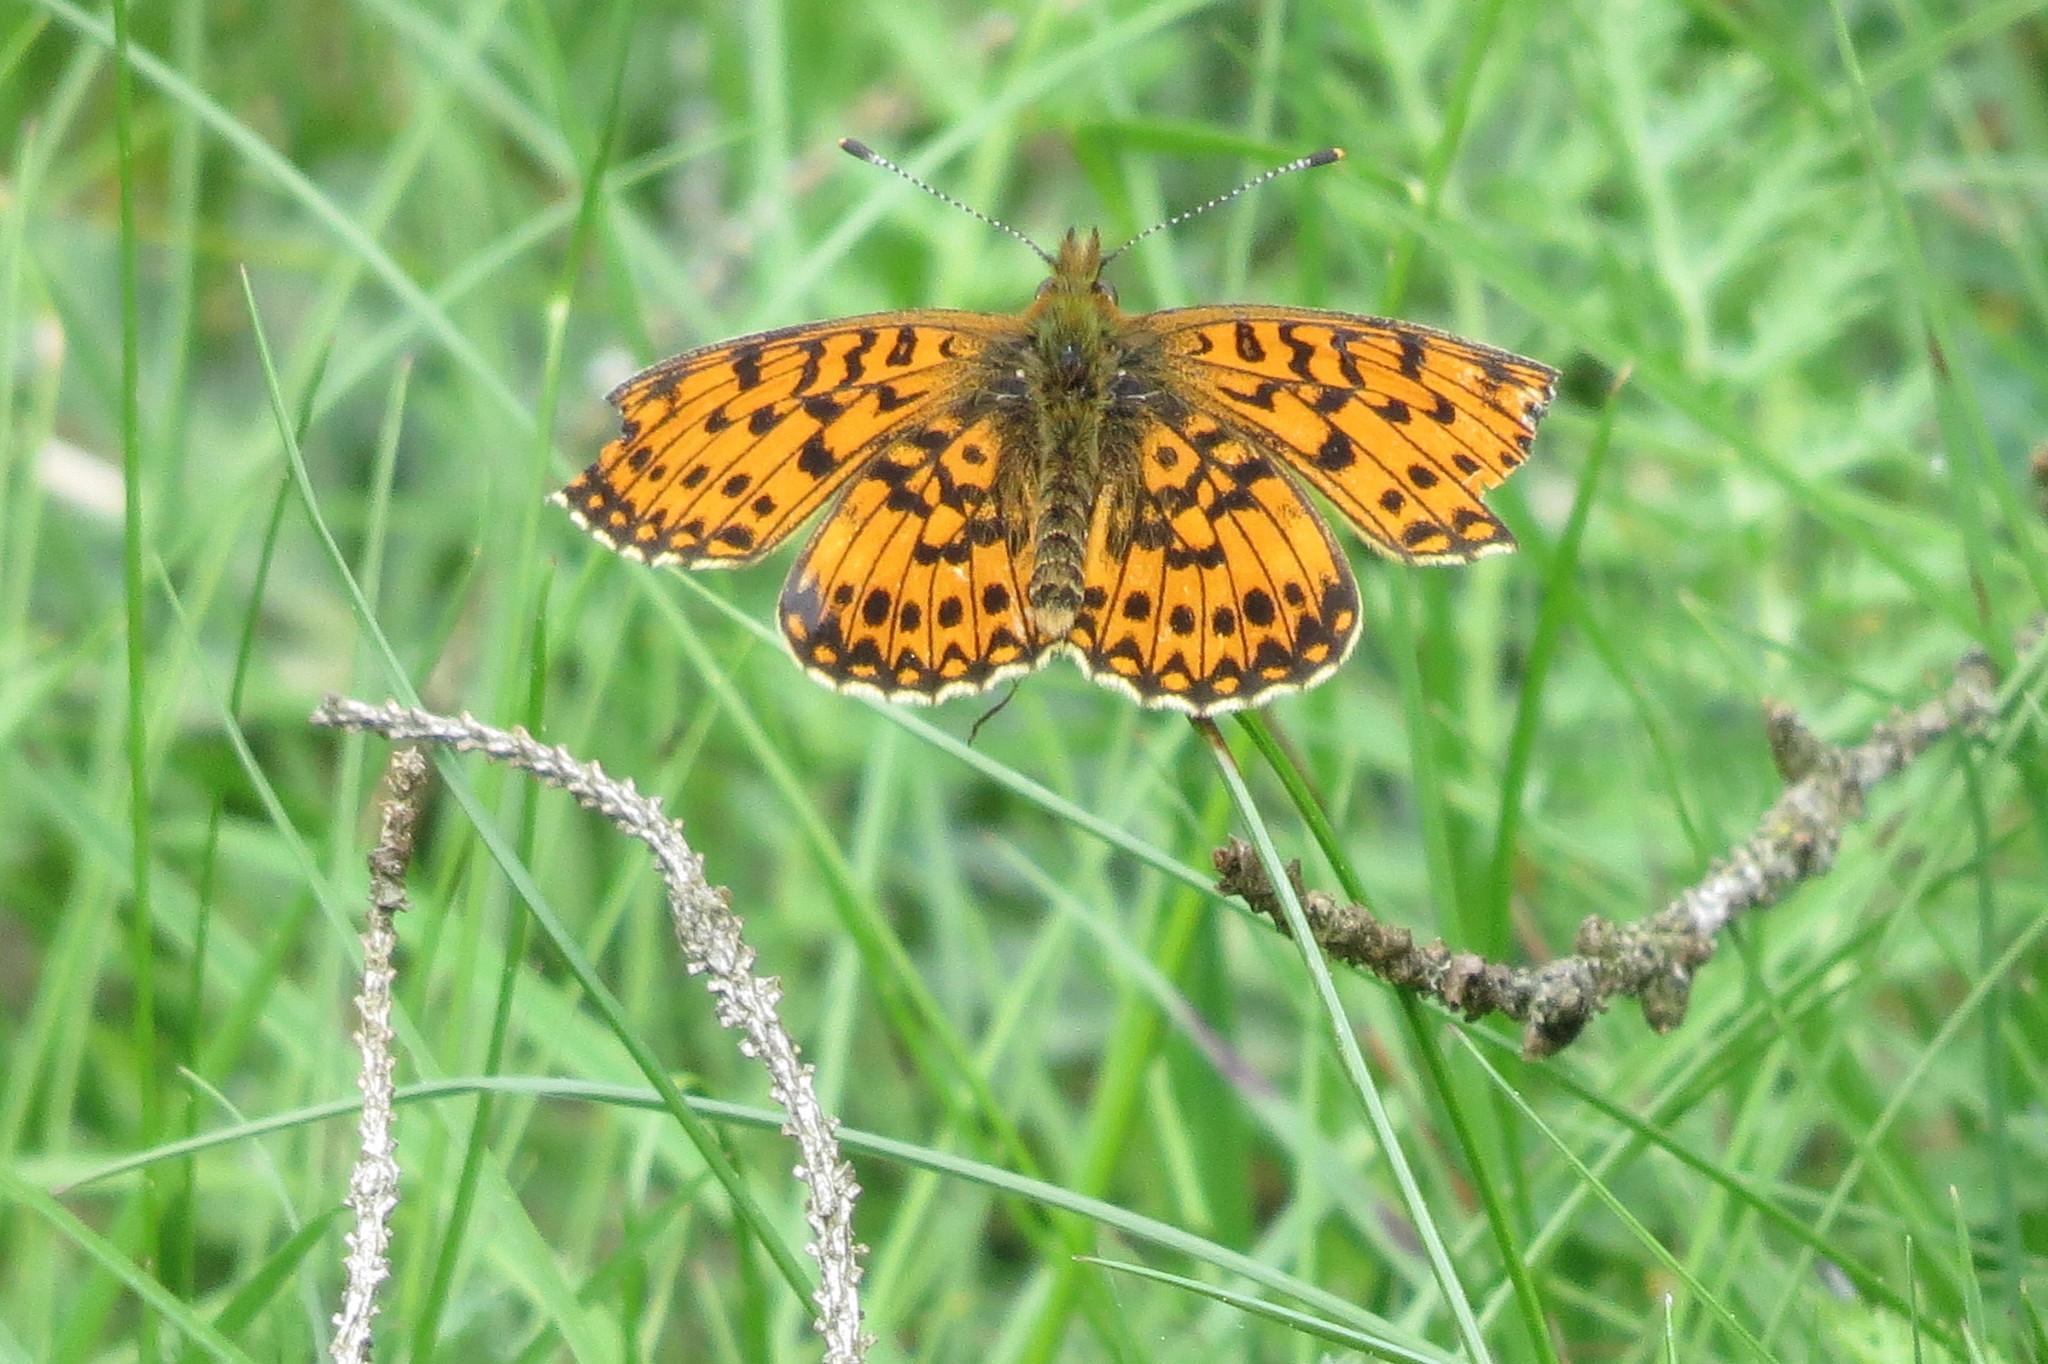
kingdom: Animalia
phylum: Arthropoda
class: Insecta
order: Lepidoptera
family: Nymphalidae
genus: Boloria
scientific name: Boloria selene
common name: Small pearl-bordered fritillary
